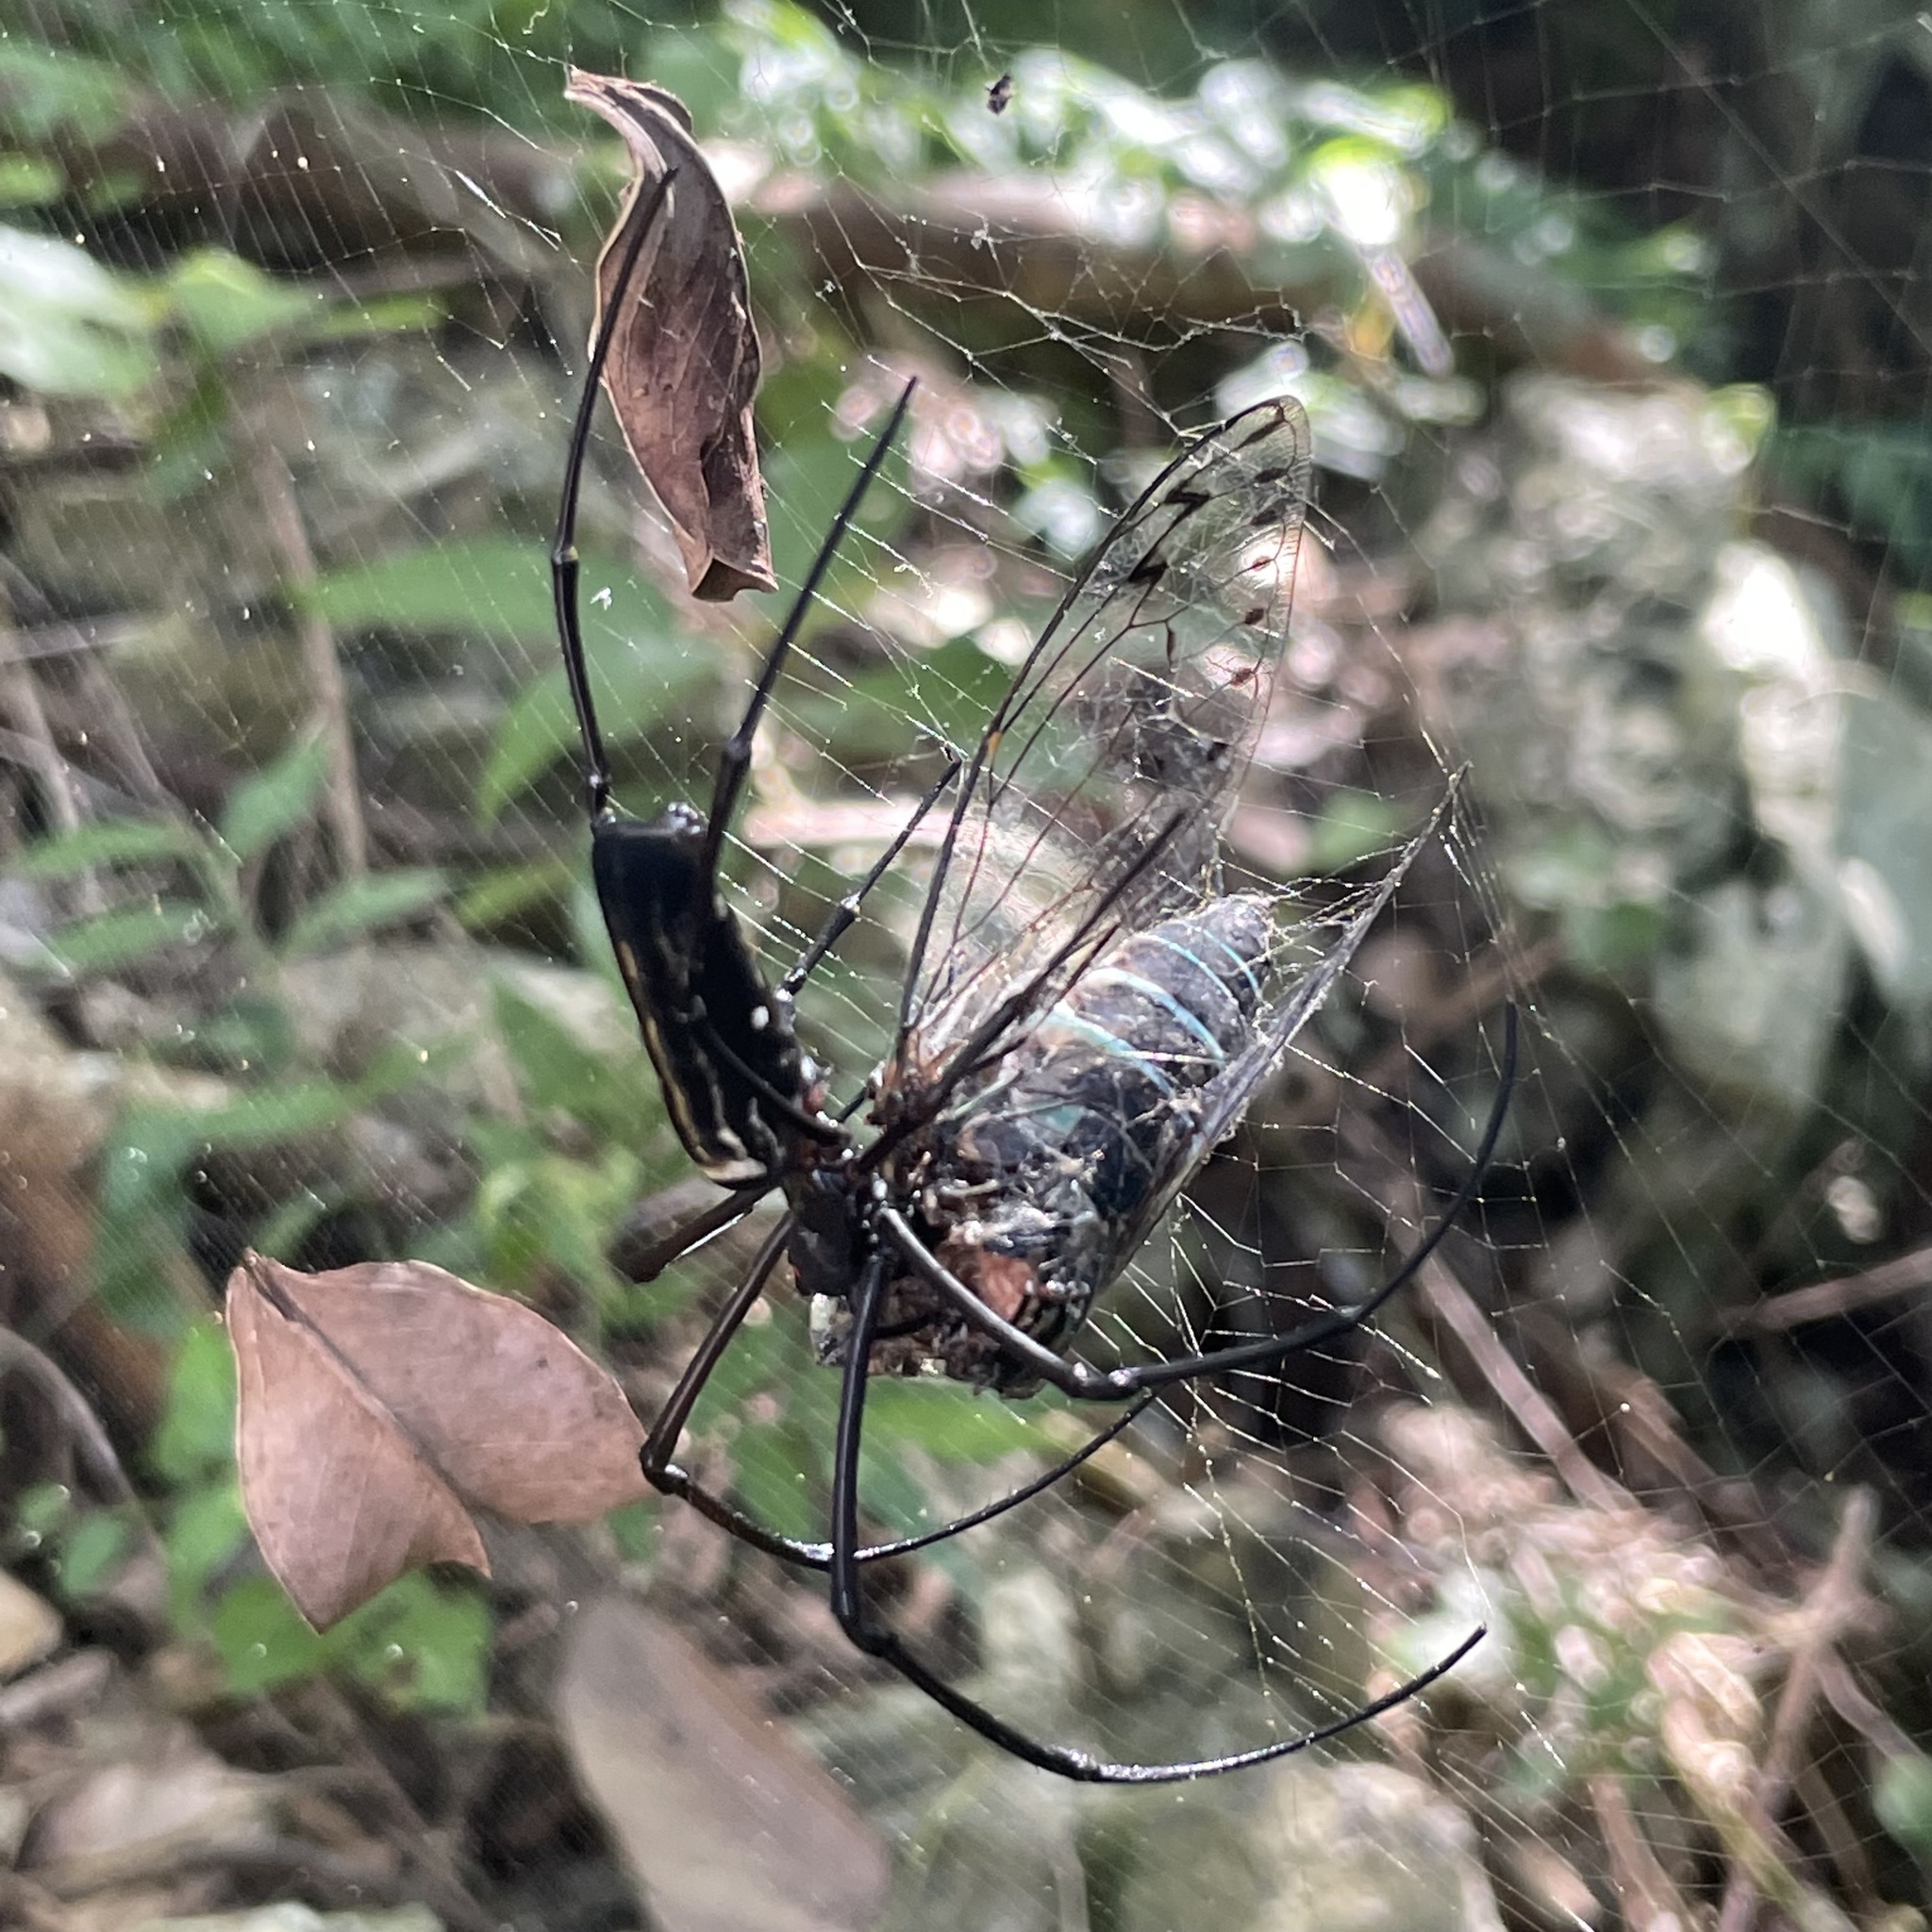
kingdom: Animalia
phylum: Arthropoda
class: Arachnida
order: Araneae
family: Araneidae
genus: Nephila
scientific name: Nephila pilipes
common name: Giant golden orb weaver
